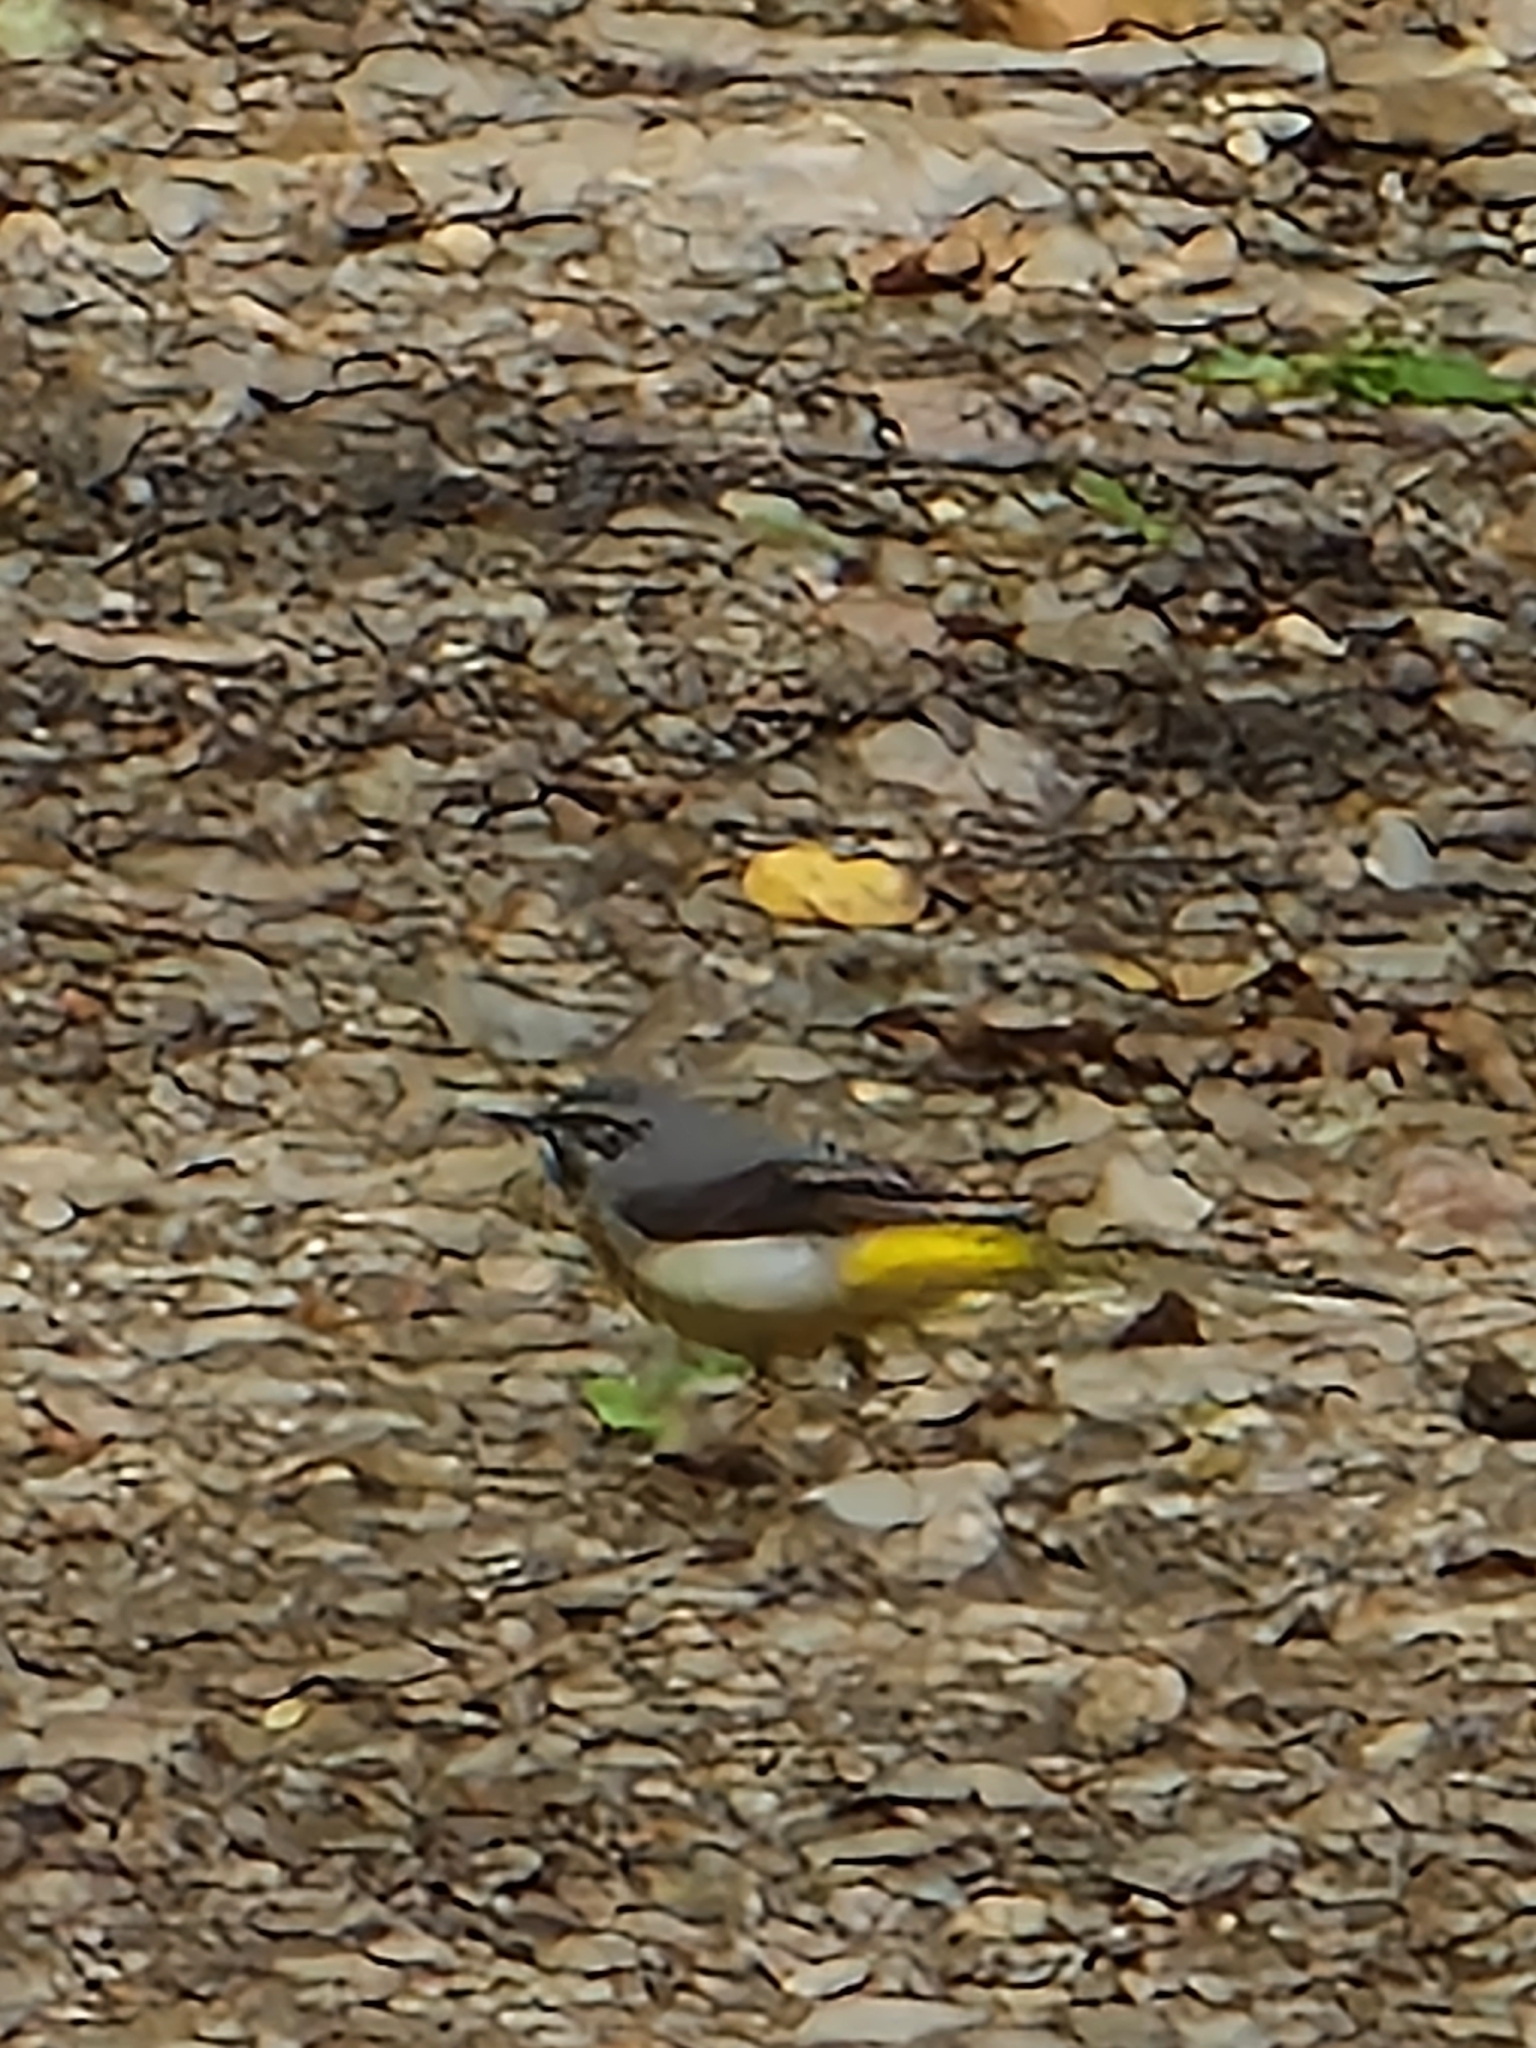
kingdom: Animalia
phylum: Chordata
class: Aves
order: Passeriformes
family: Motacillidae
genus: Motacilla
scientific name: Motacilla cinerea
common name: Grey wagtail
